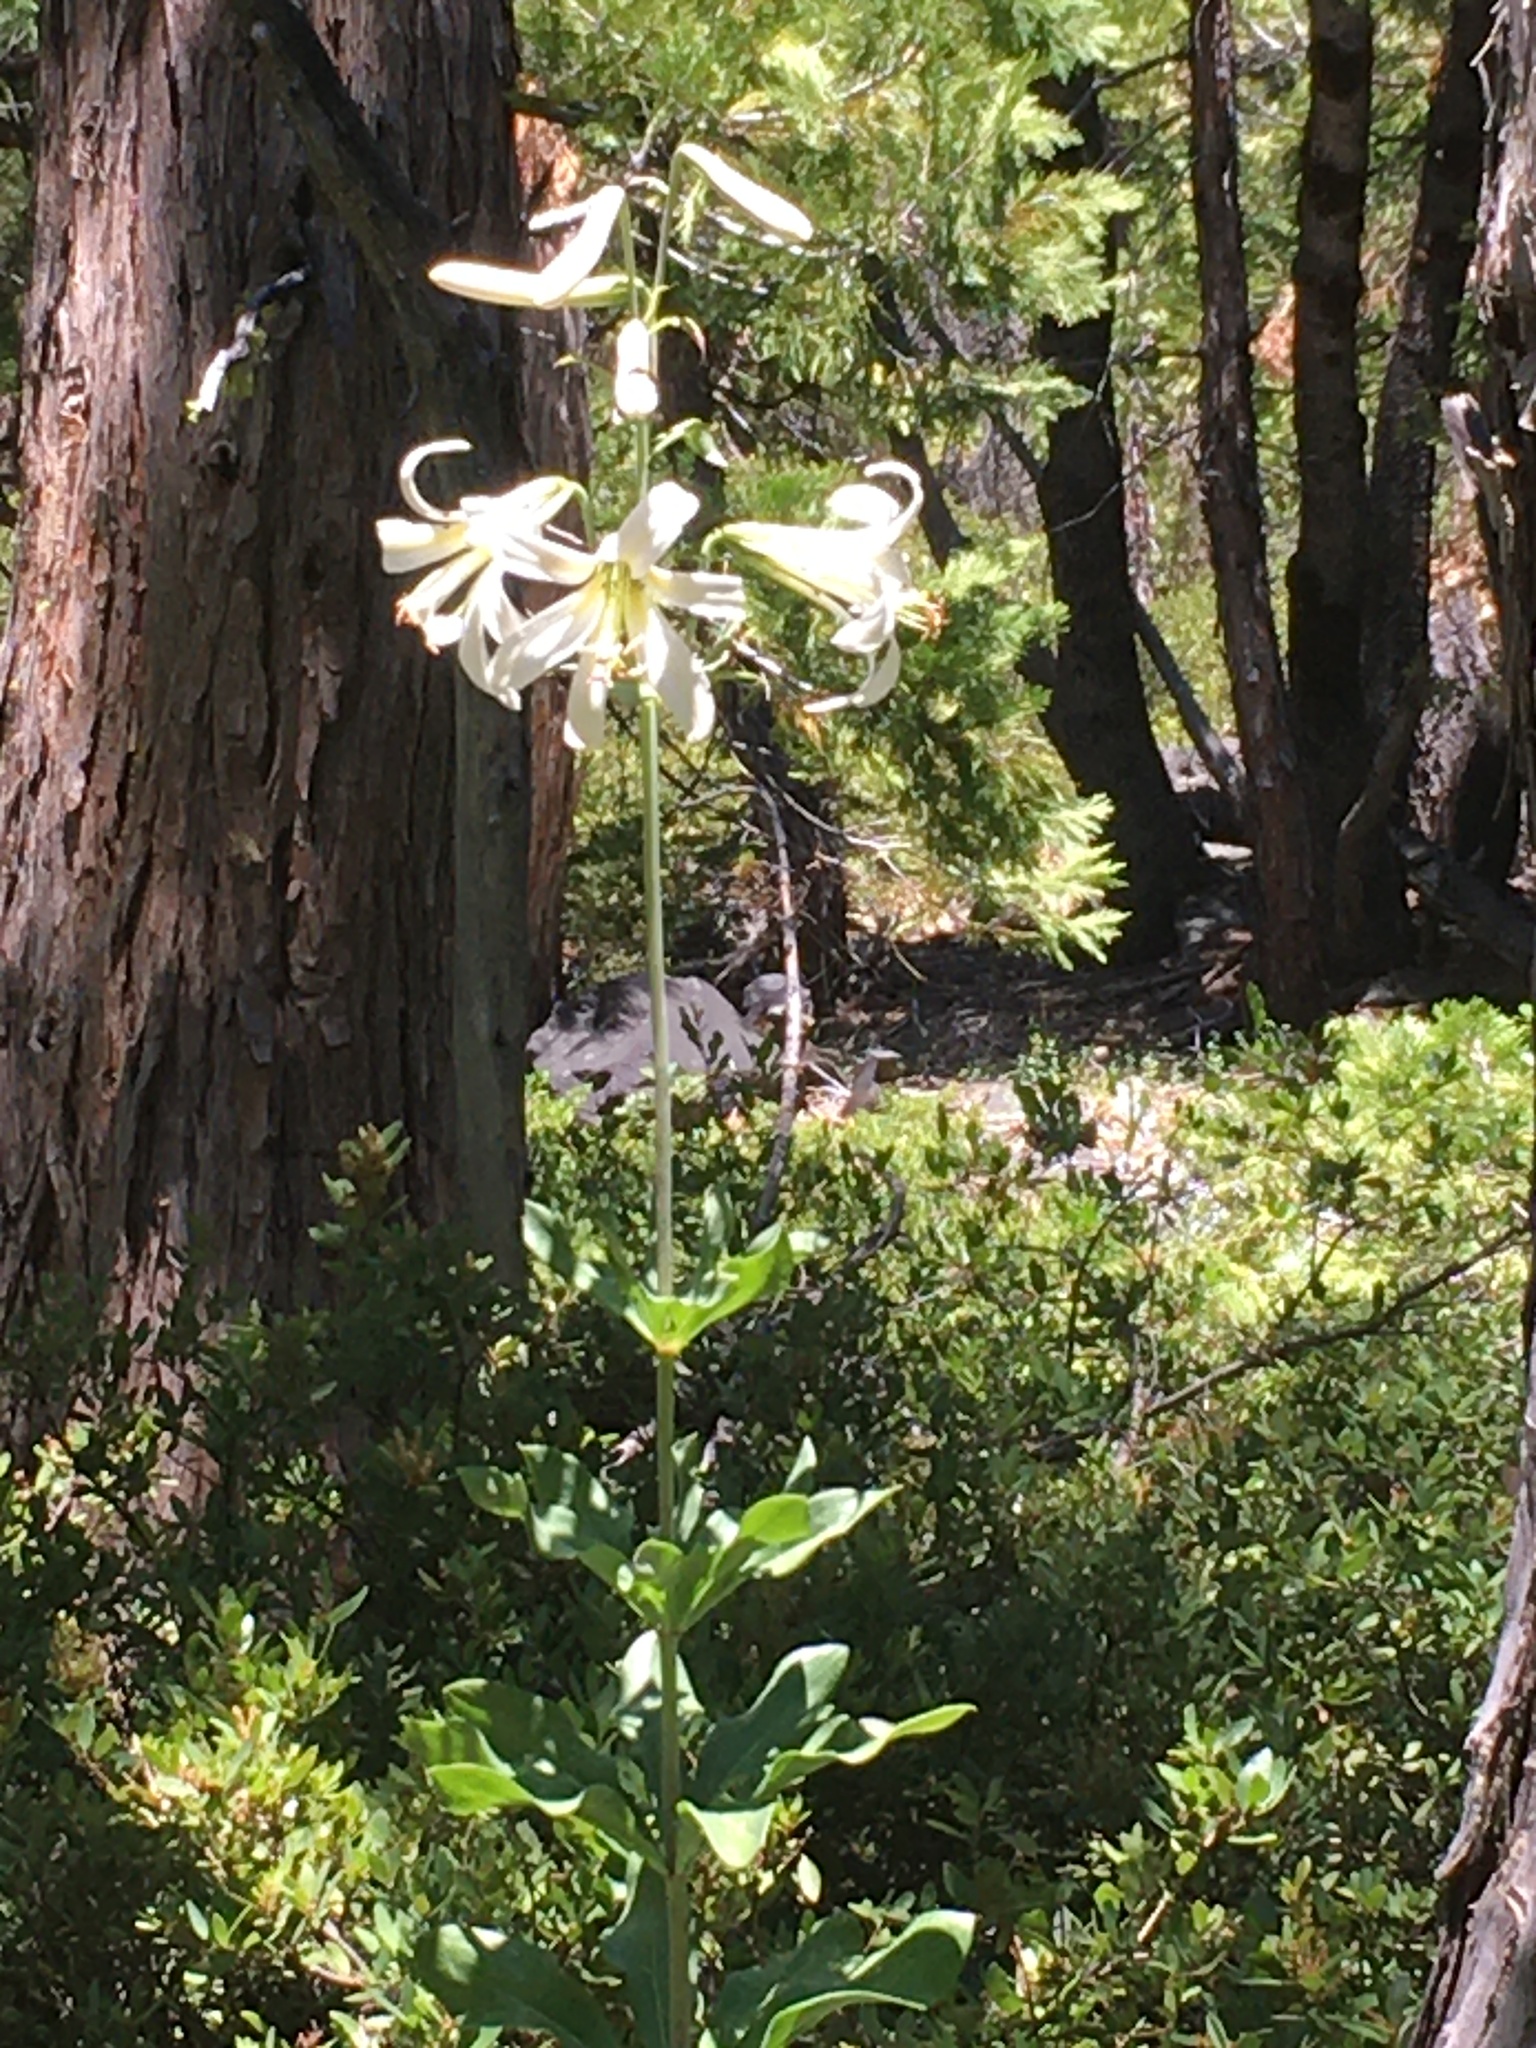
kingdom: Plantae
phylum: Tracheophyta
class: Liliopsida
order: Liliales
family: Liliaceae
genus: Lilium
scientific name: Lilium washingtonianum
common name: Washington lily
